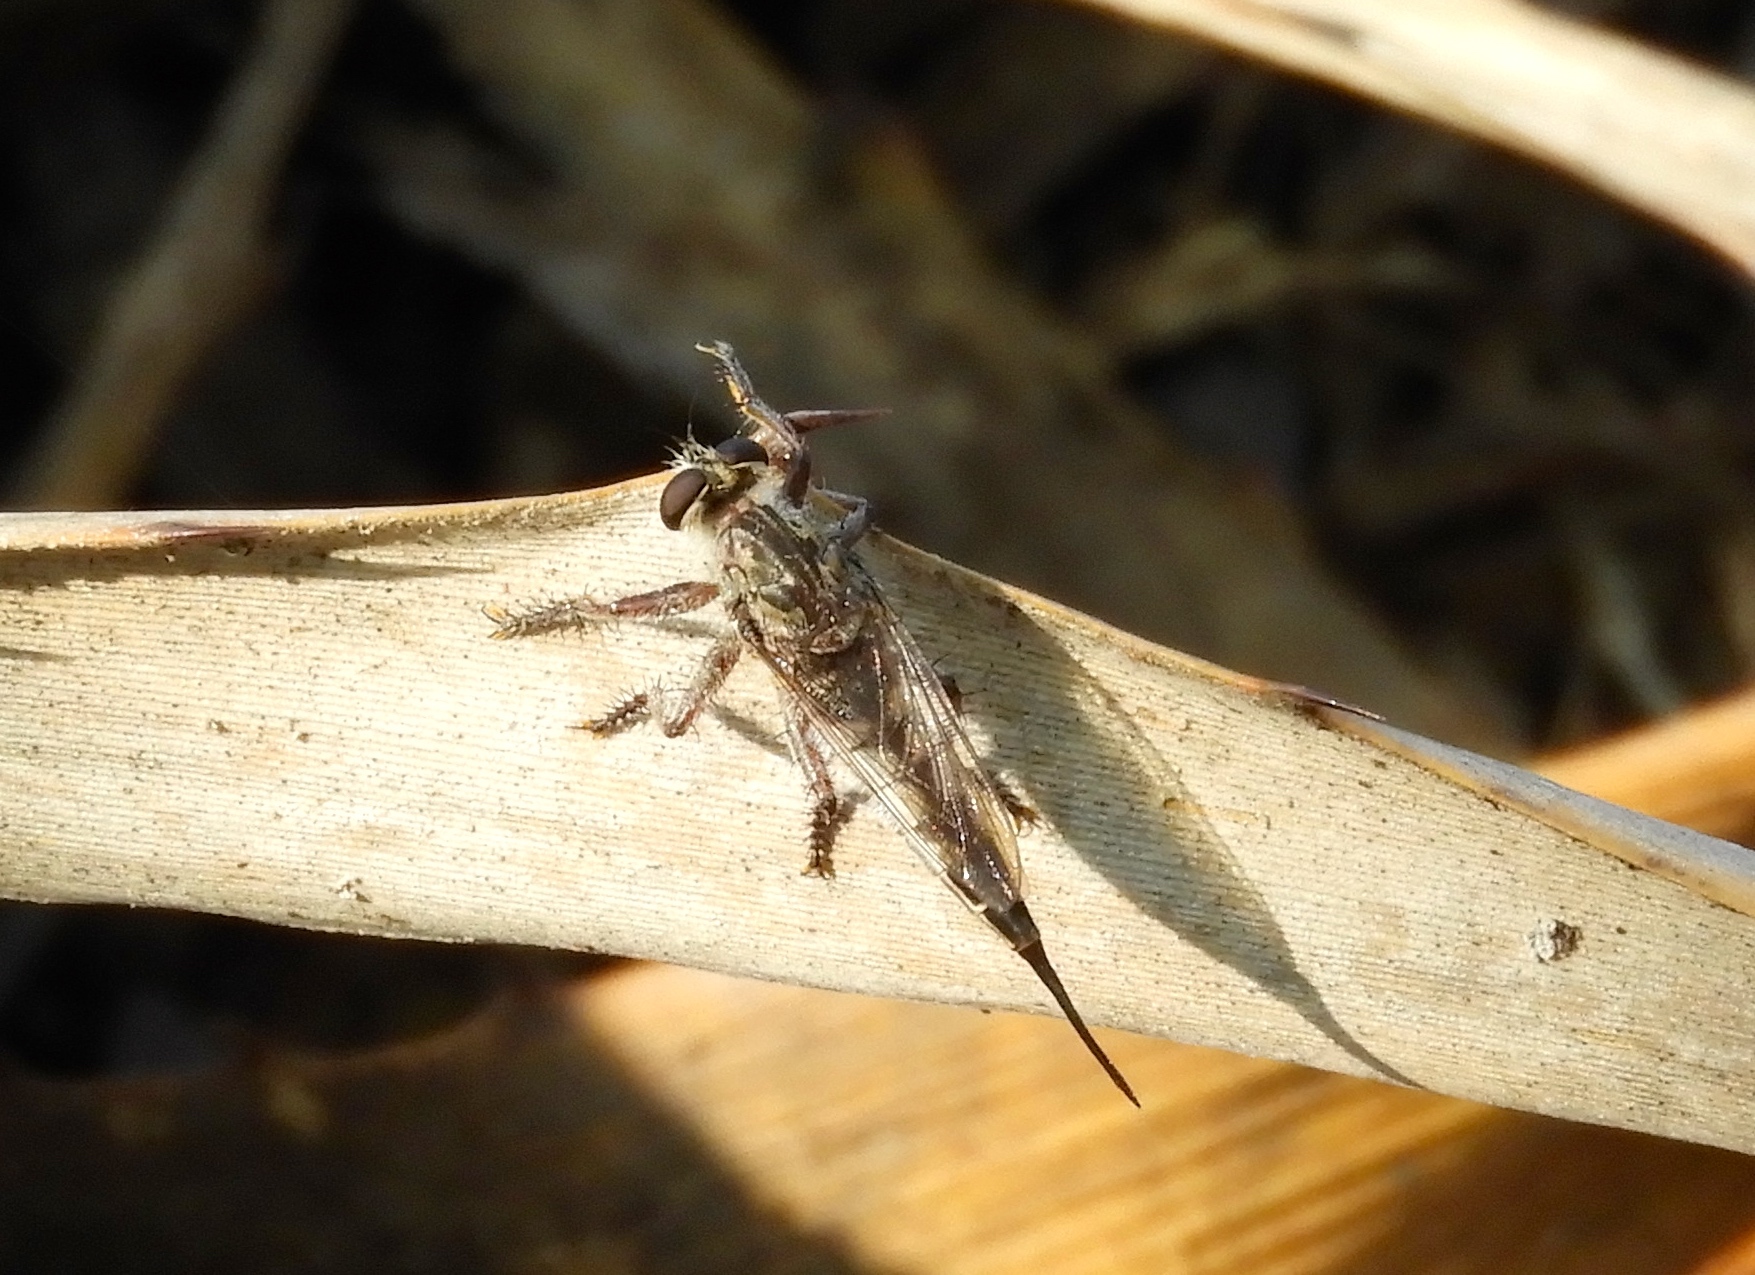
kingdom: Animalia
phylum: Arthropoda
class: Insecta
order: Diptera
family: Asilidae
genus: Efferia
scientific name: Efferia
